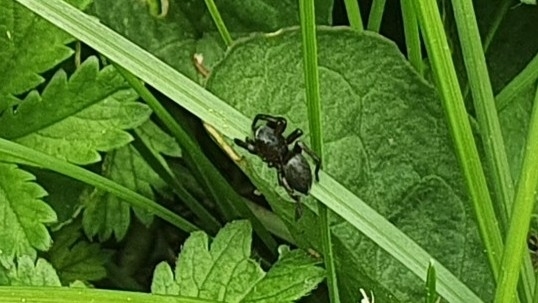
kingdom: Animalia
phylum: Arthropoda
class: Arachnida
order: Araneae
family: Salticidae
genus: Evarcha
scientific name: Evarcha arcuata
